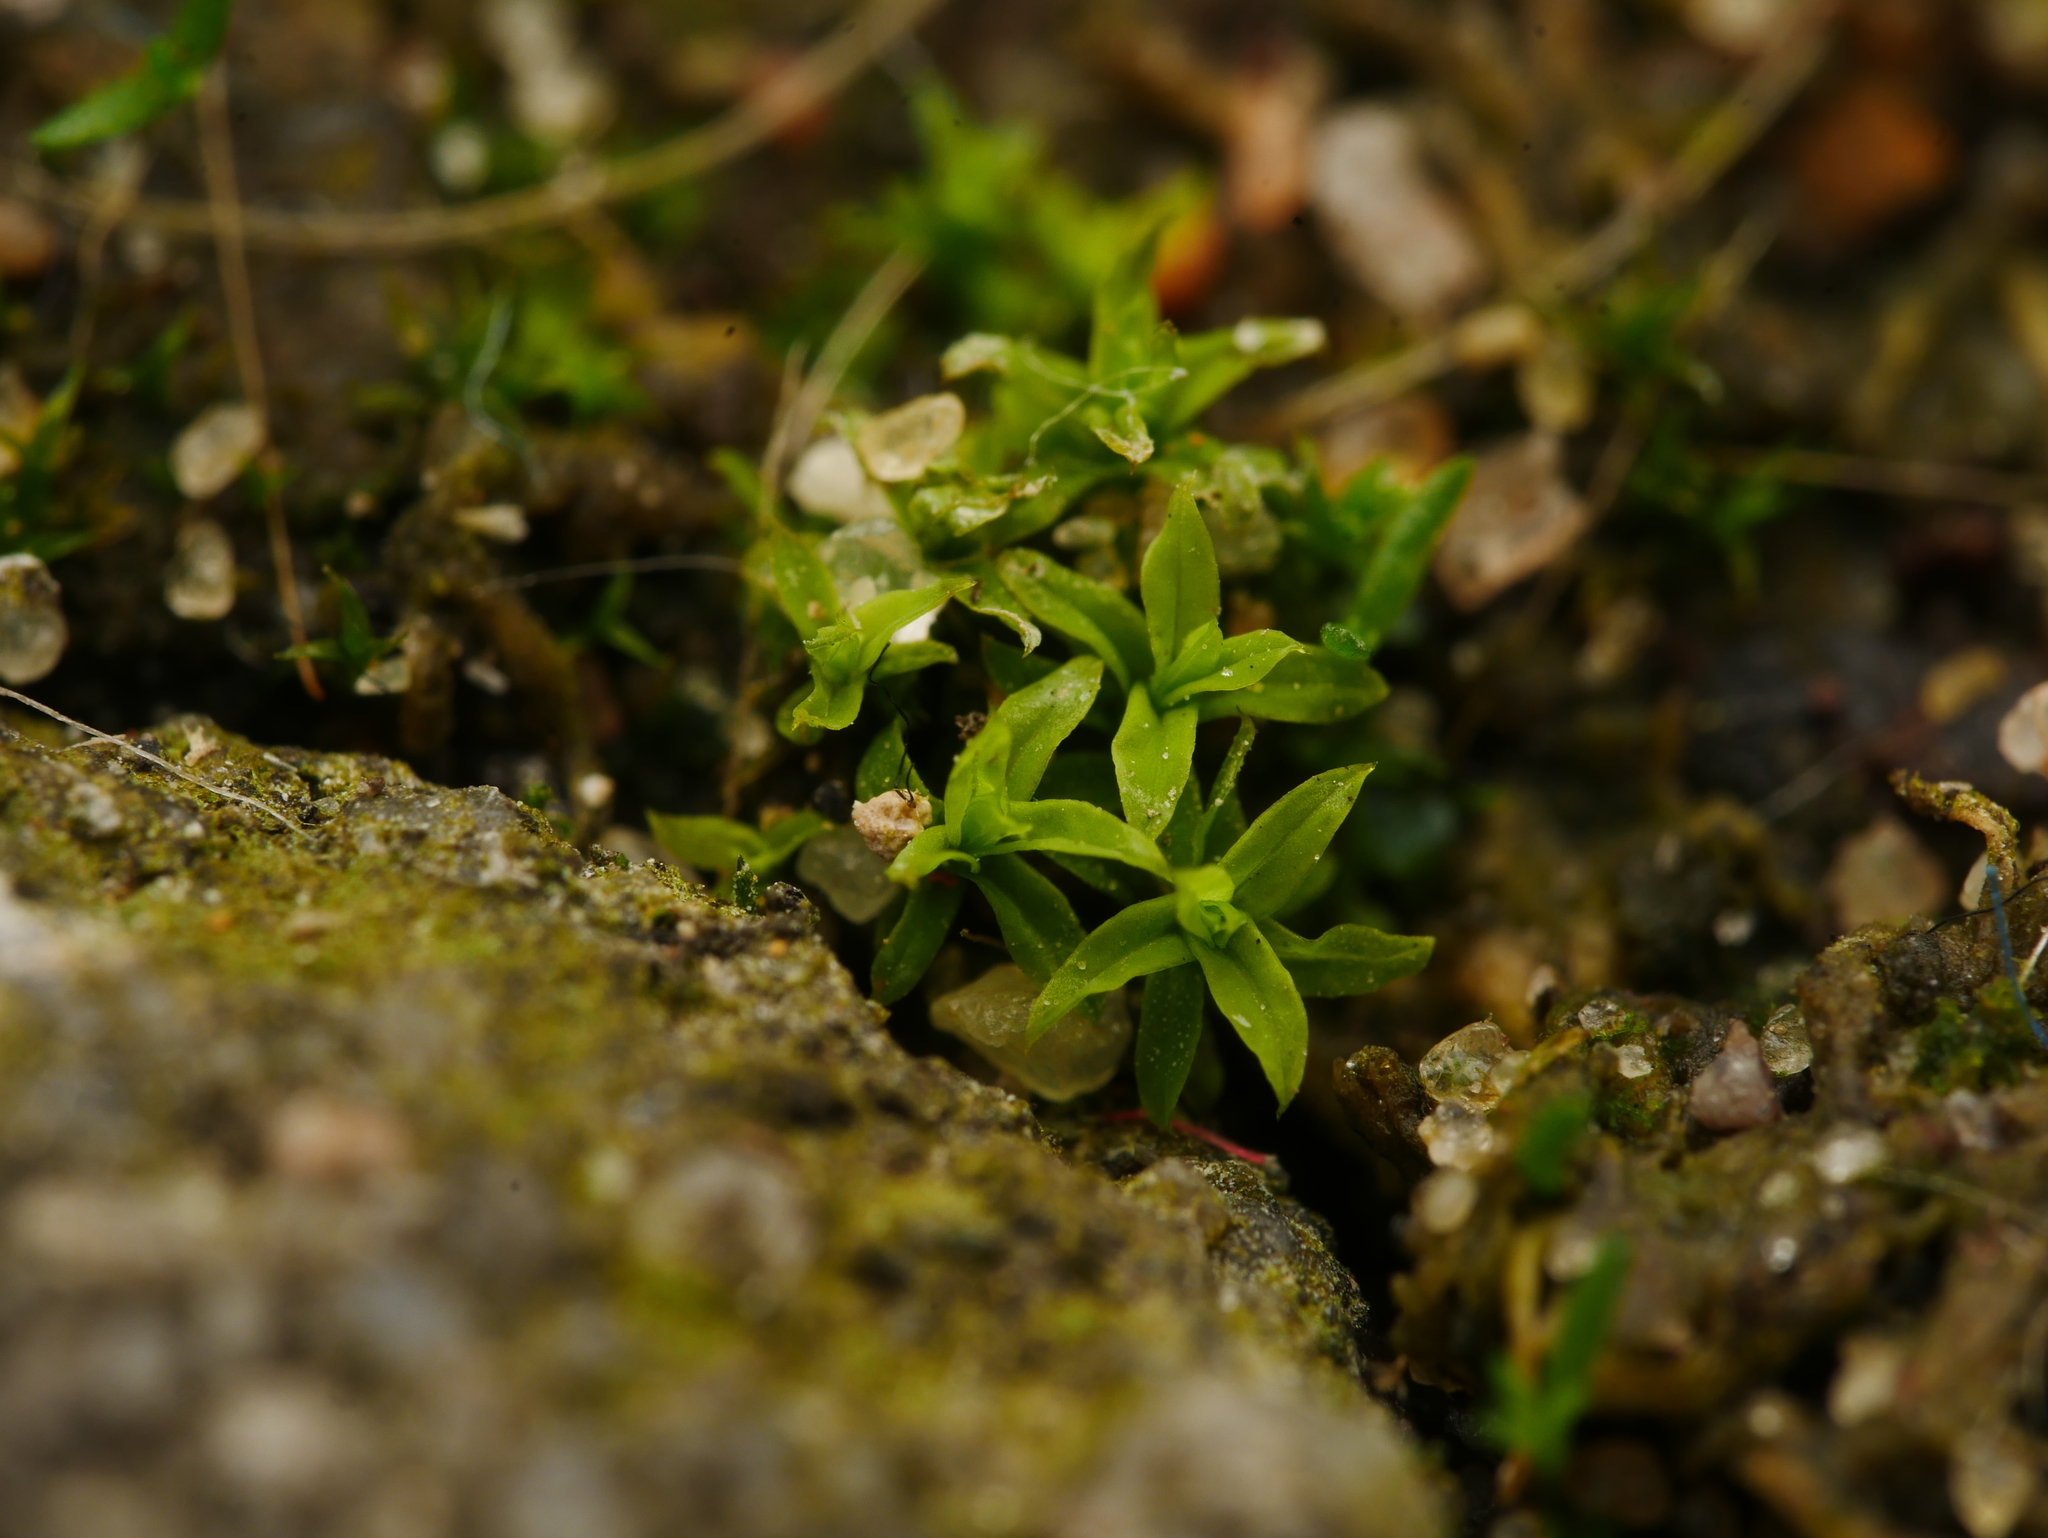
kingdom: Plantae
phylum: Bryophyta
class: Bryopsida
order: Pottiales
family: Pottiaceae
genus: Barbula
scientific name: Barbula unguiculata
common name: Prickly beard moss
